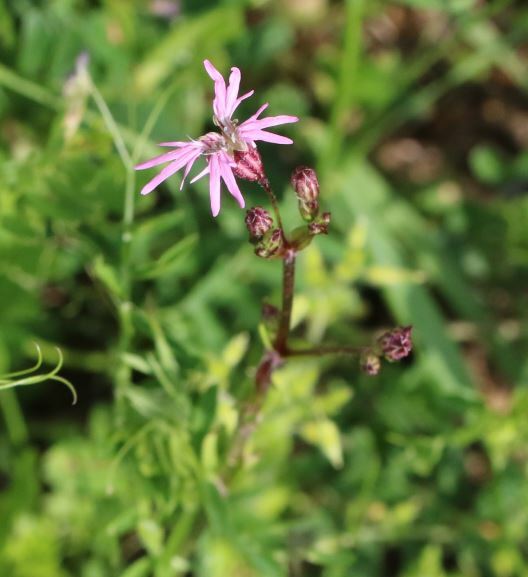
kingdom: Plantae
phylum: Tracheophyta
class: Magnoliopsida
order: Caryophyllales
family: Caryophyllaceae
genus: Silene
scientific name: Silene flos-cuculi
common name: Ragged-robin
